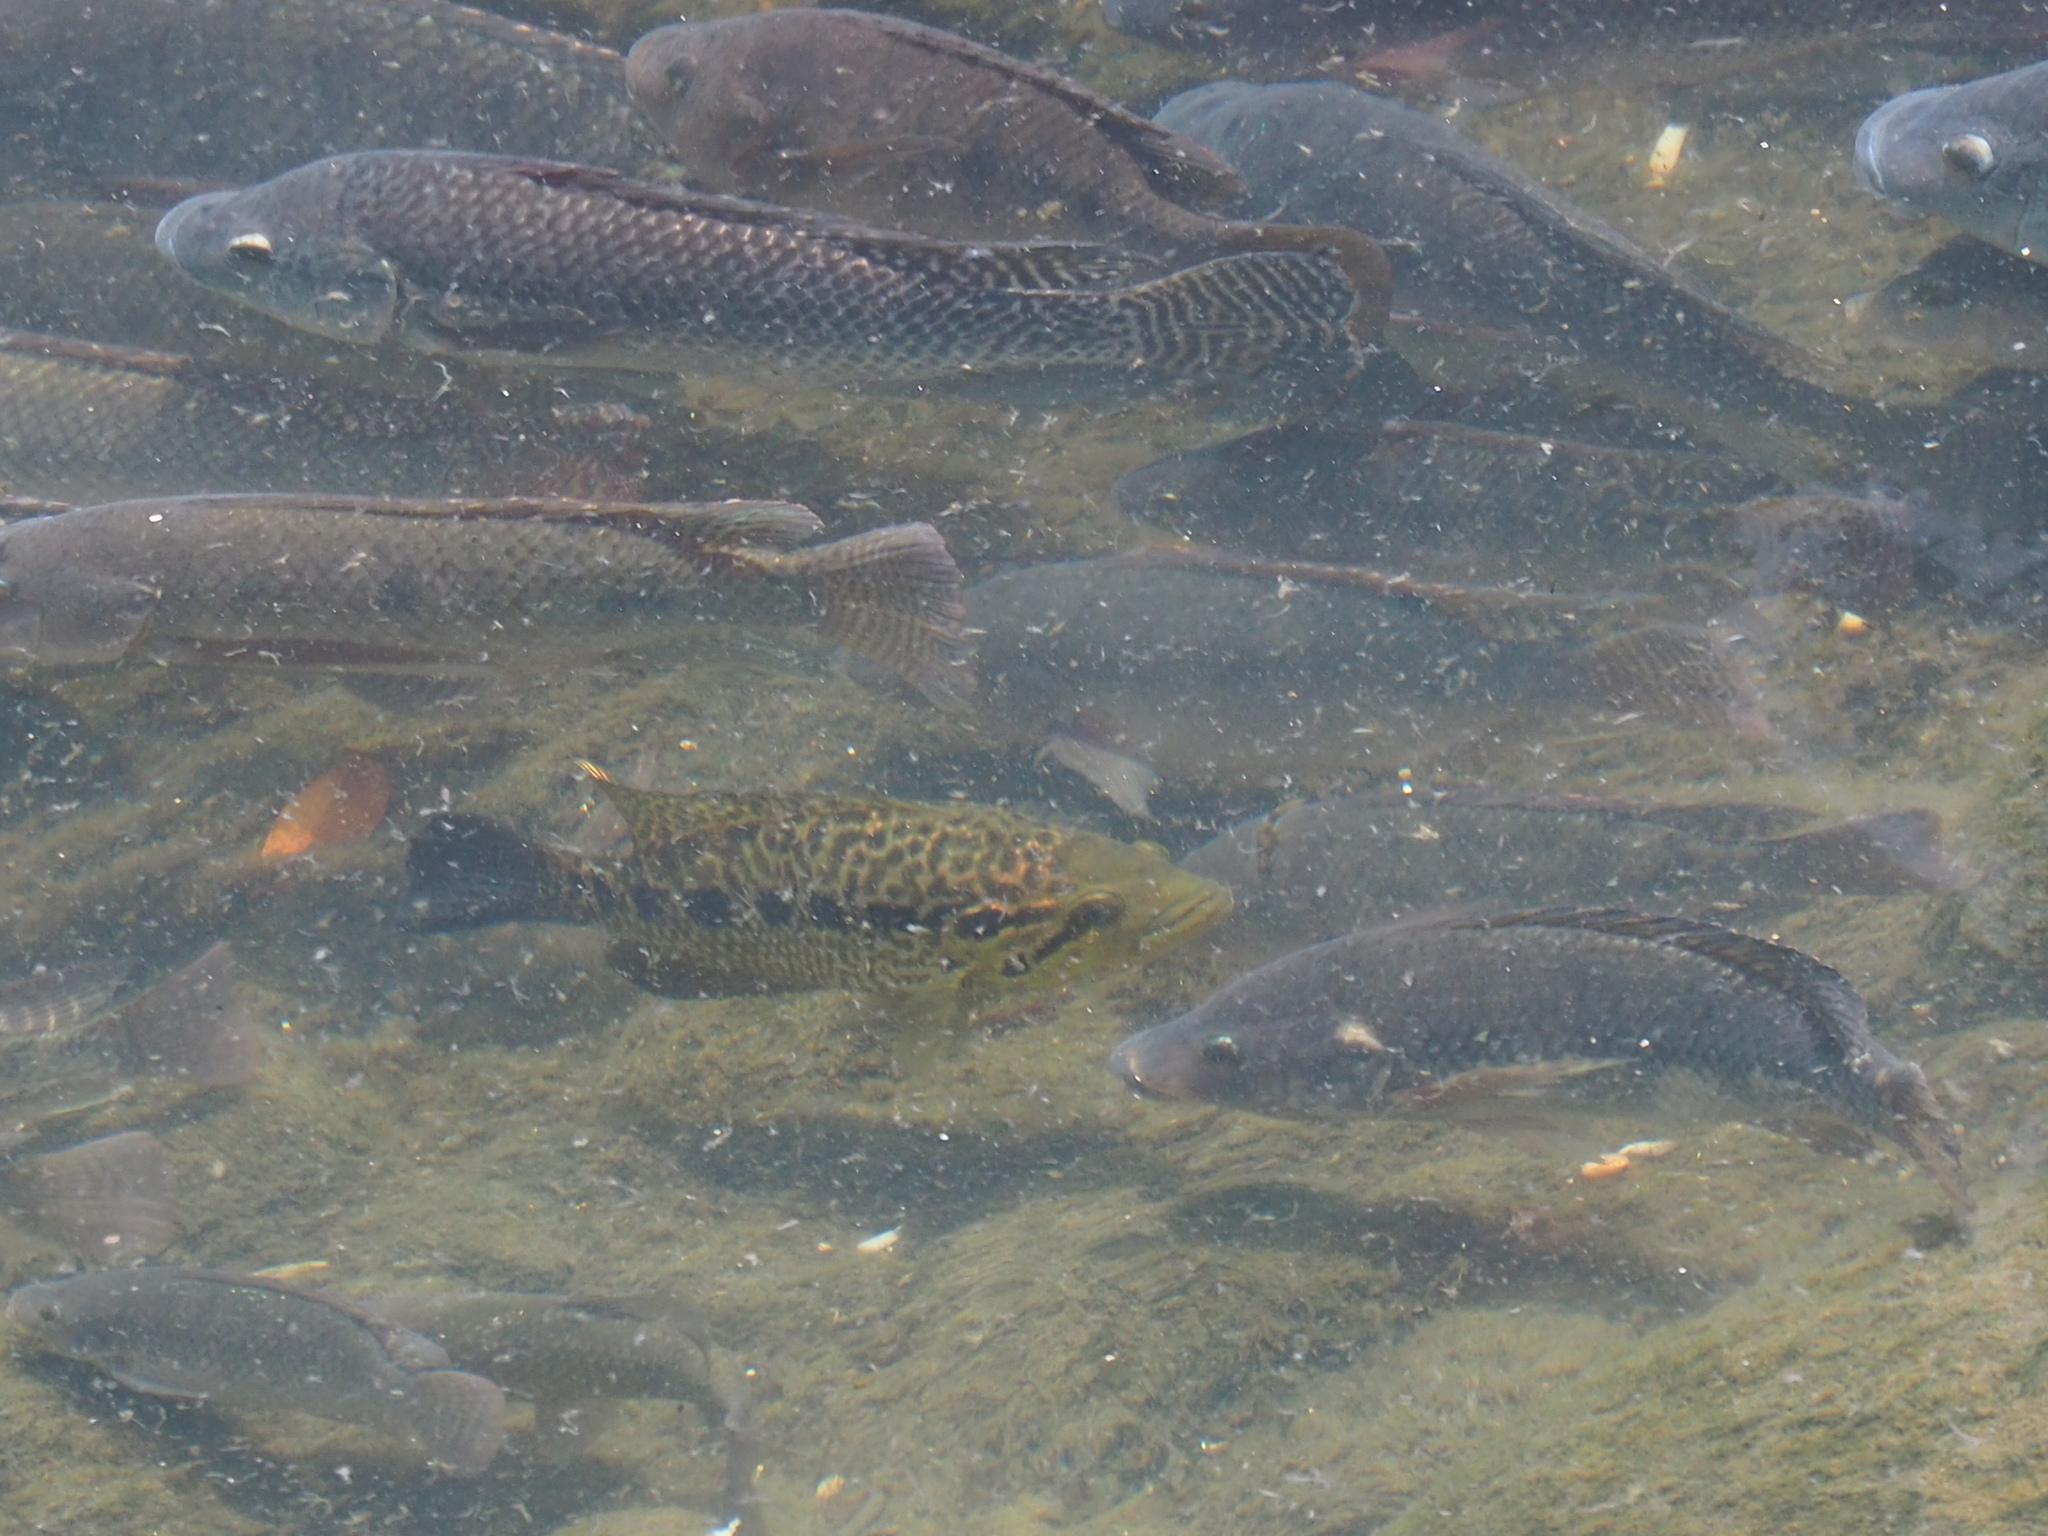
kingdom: Animalia
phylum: Chordata
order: Perciformes
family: Cichlidae
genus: Parachromis
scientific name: Parachromis managuensis
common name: Jaguar guapote
